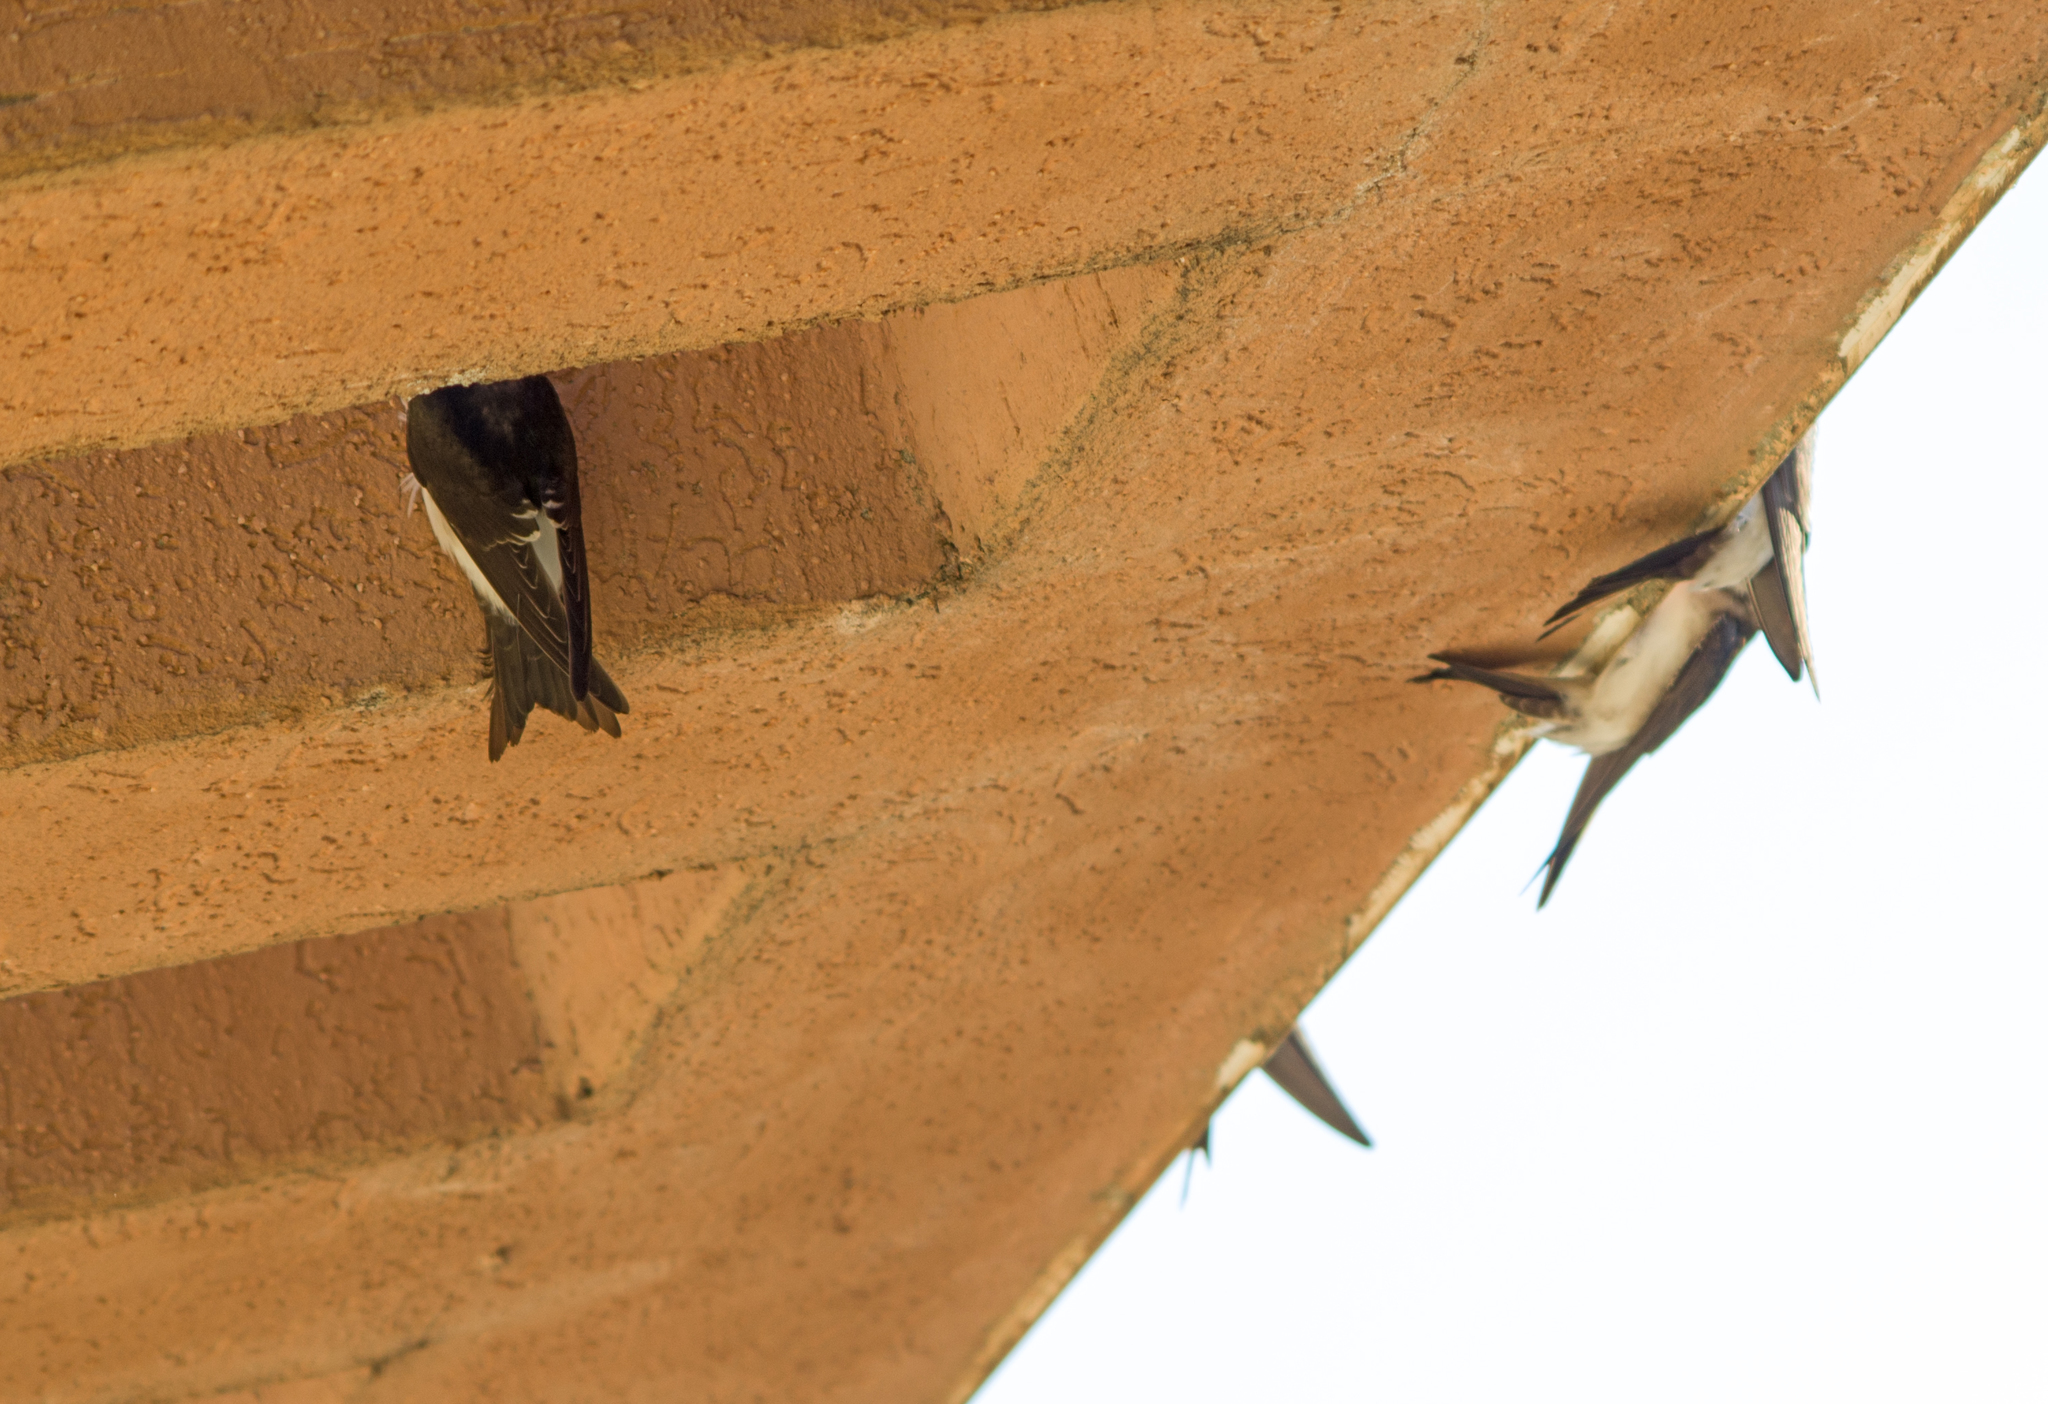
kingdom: Animalia
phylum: Chordata
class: Aves
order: Passeriformes
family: Hirundinidae
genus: Delichon
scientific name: Delichon urbicum
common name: Common house martin
